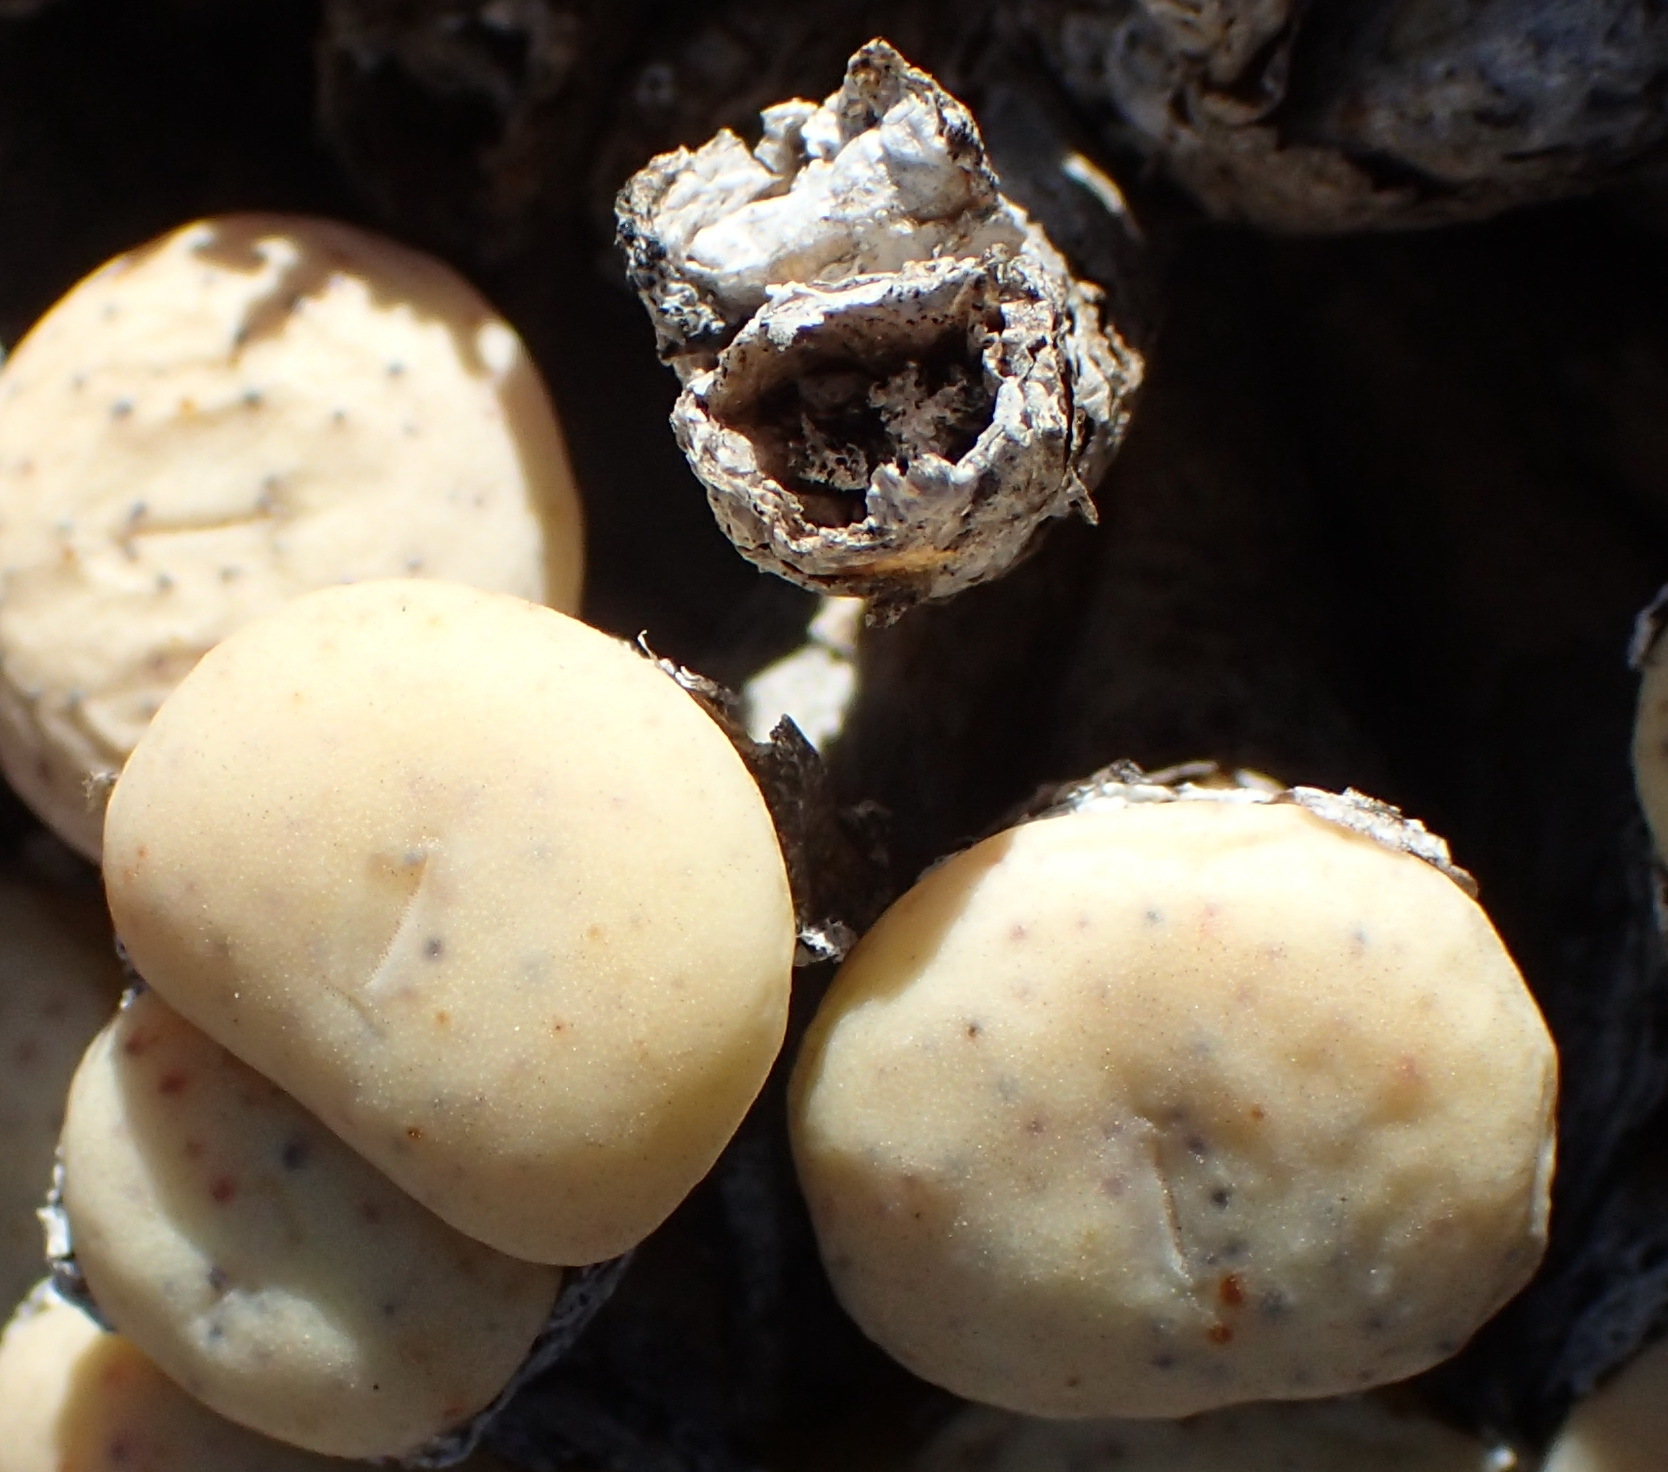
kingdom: Plantae
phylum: Tracheophyta
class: Magnoliopsida
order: Caryophyllales
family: Aizoaceae
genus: Conophytum
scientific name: Conophytum minutum
